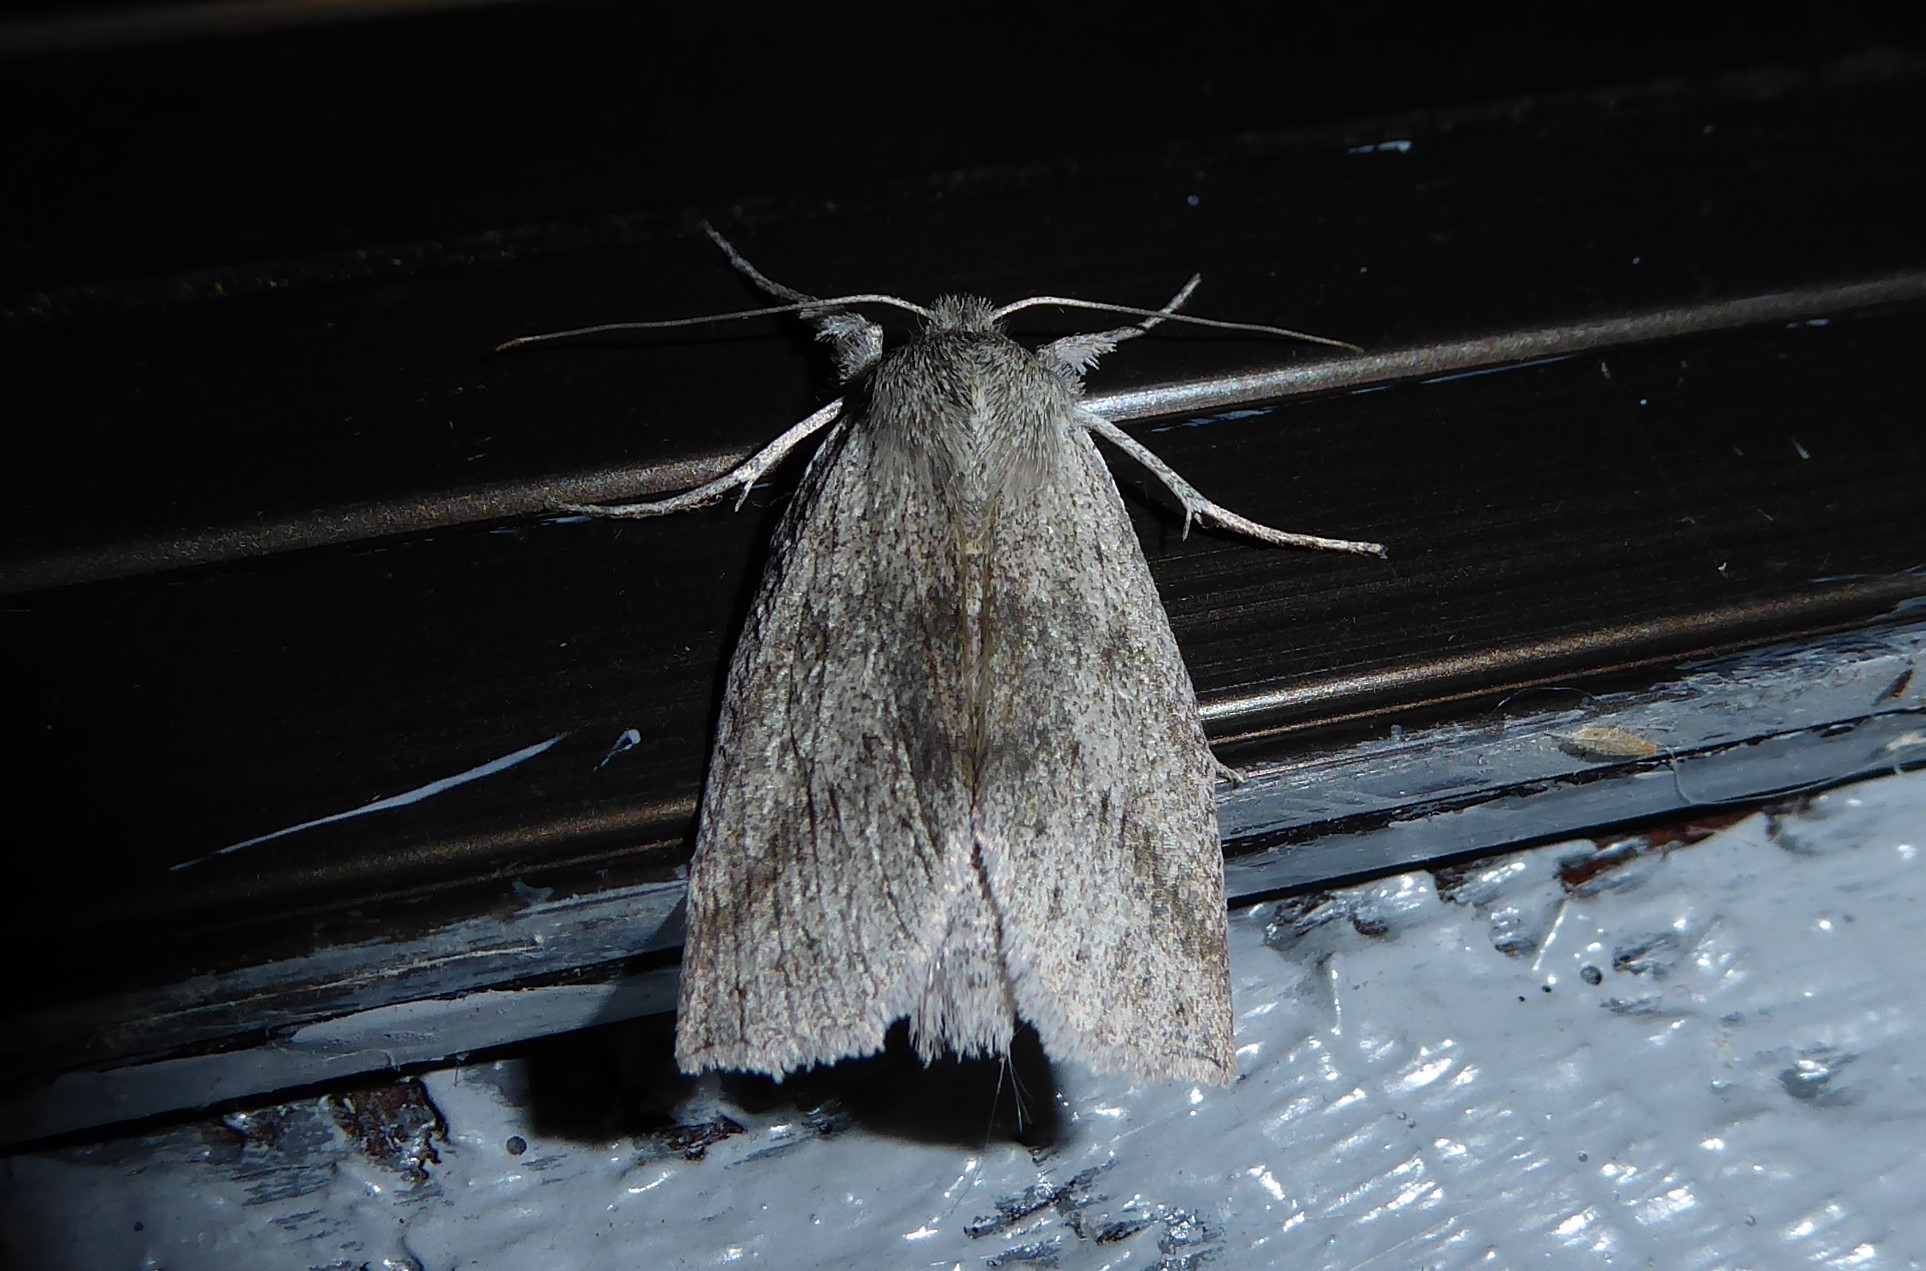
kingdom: Animalia
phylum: Arthropoda
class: Insecta
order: Lepidoptera
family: Geometridae
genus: Declana
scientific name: Declana leptomera
